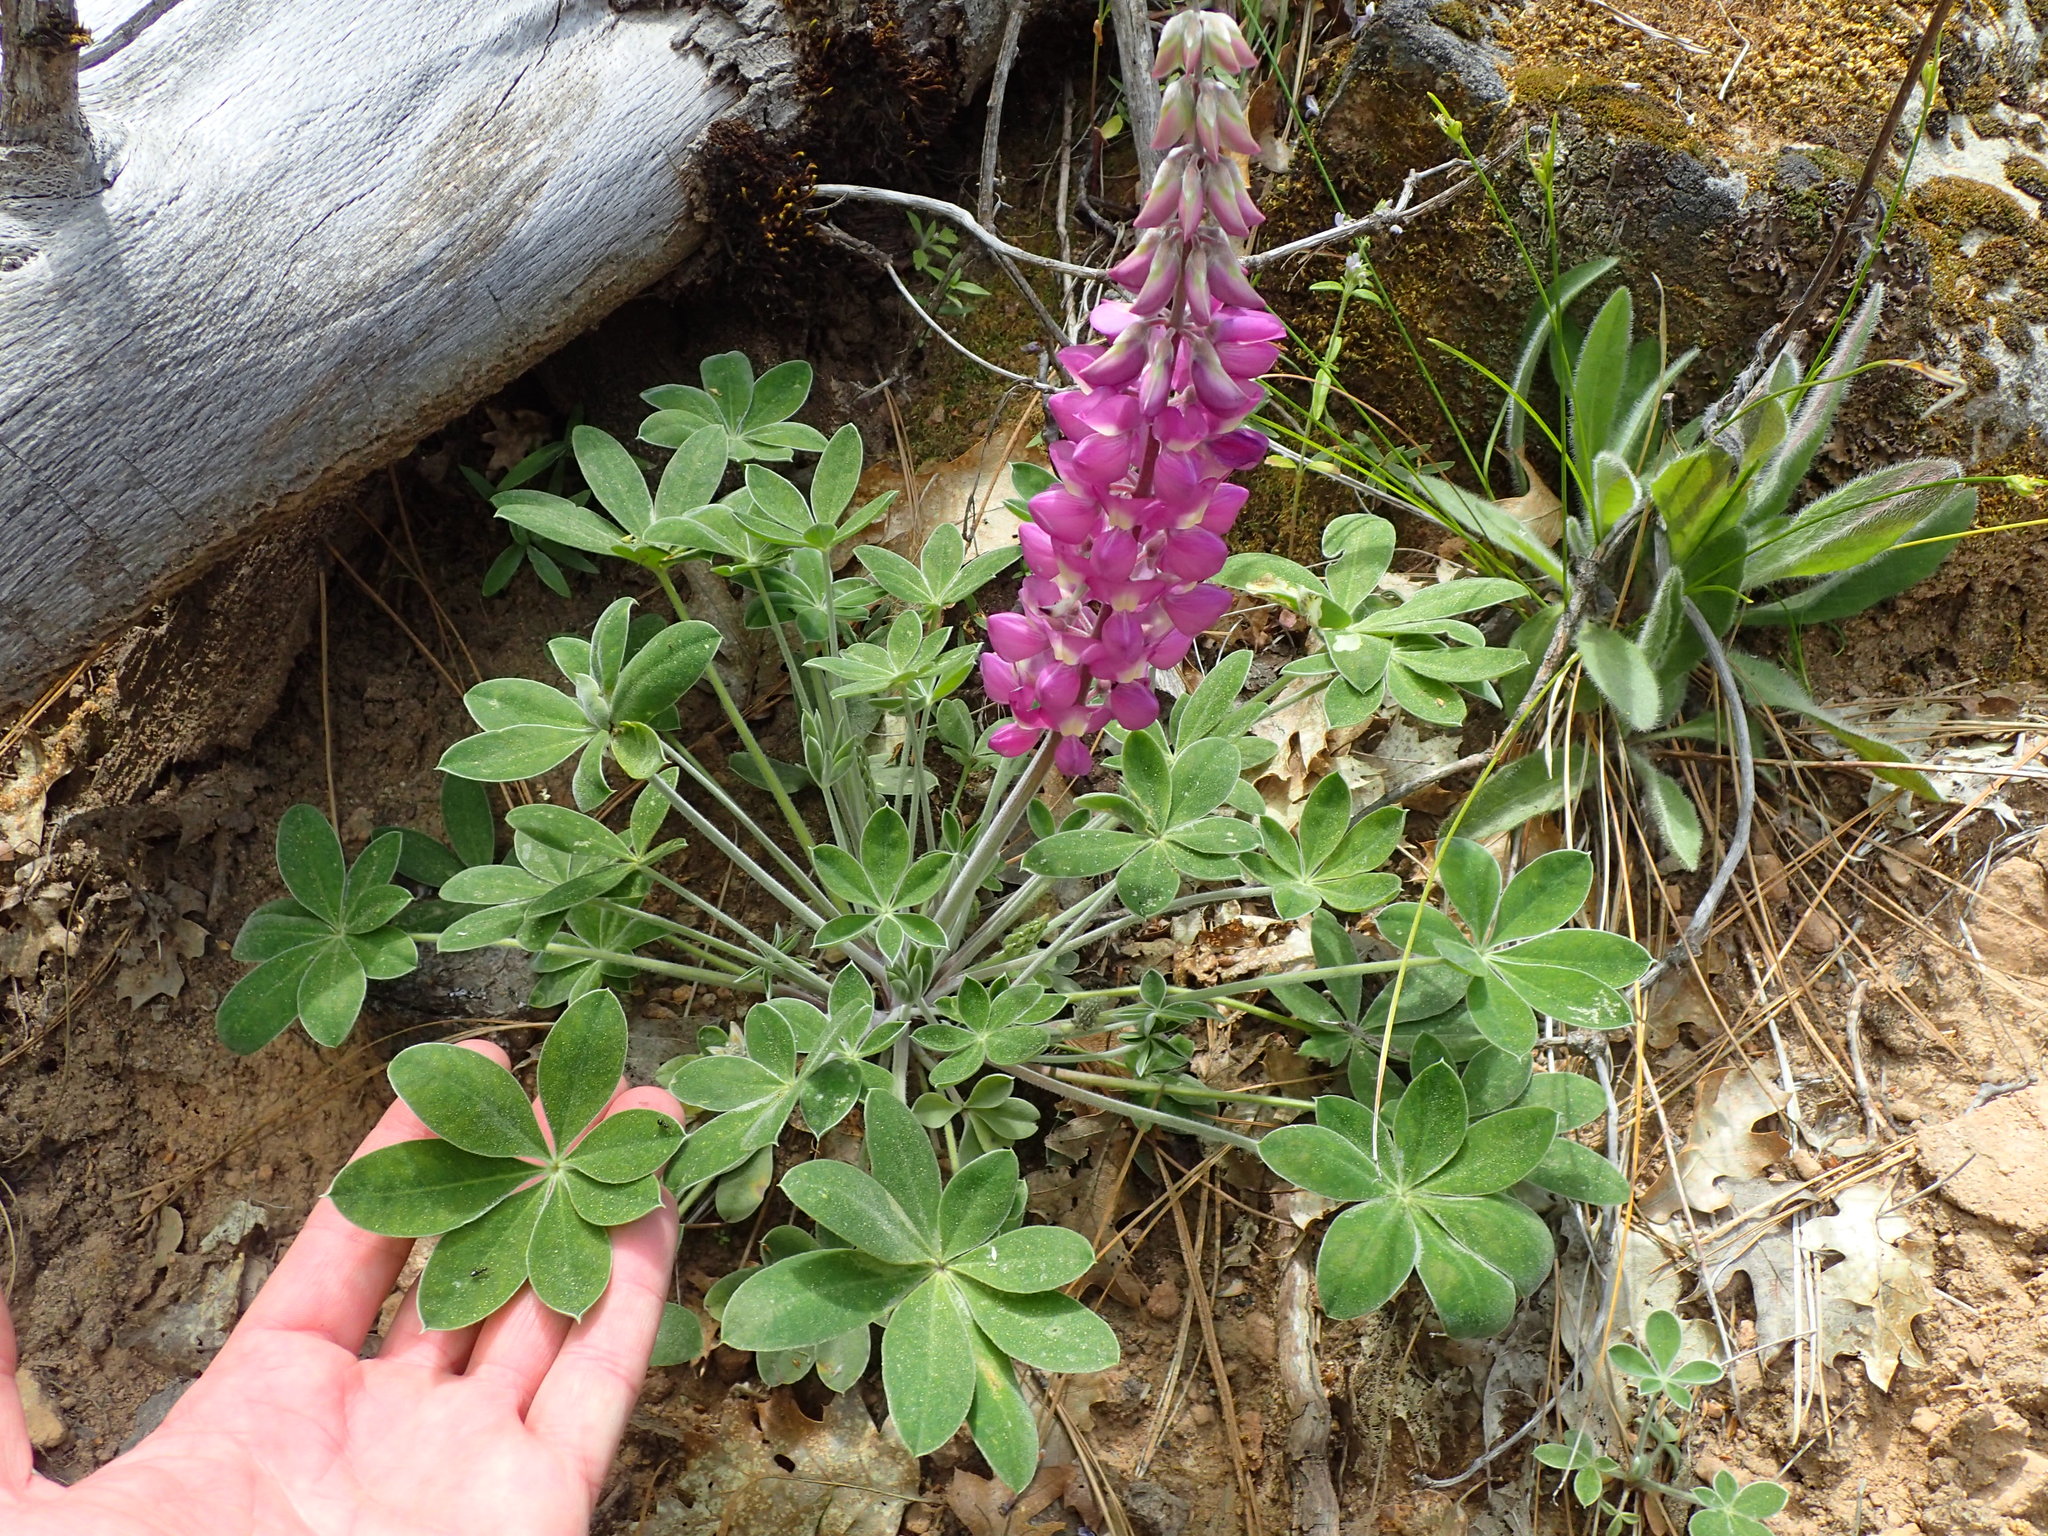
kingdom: Plantae
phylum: Tracheophyta
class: Magnoliopsida
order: Fabales
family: Fabaceae
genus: Lupinus
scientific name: Lupinus cervinus
